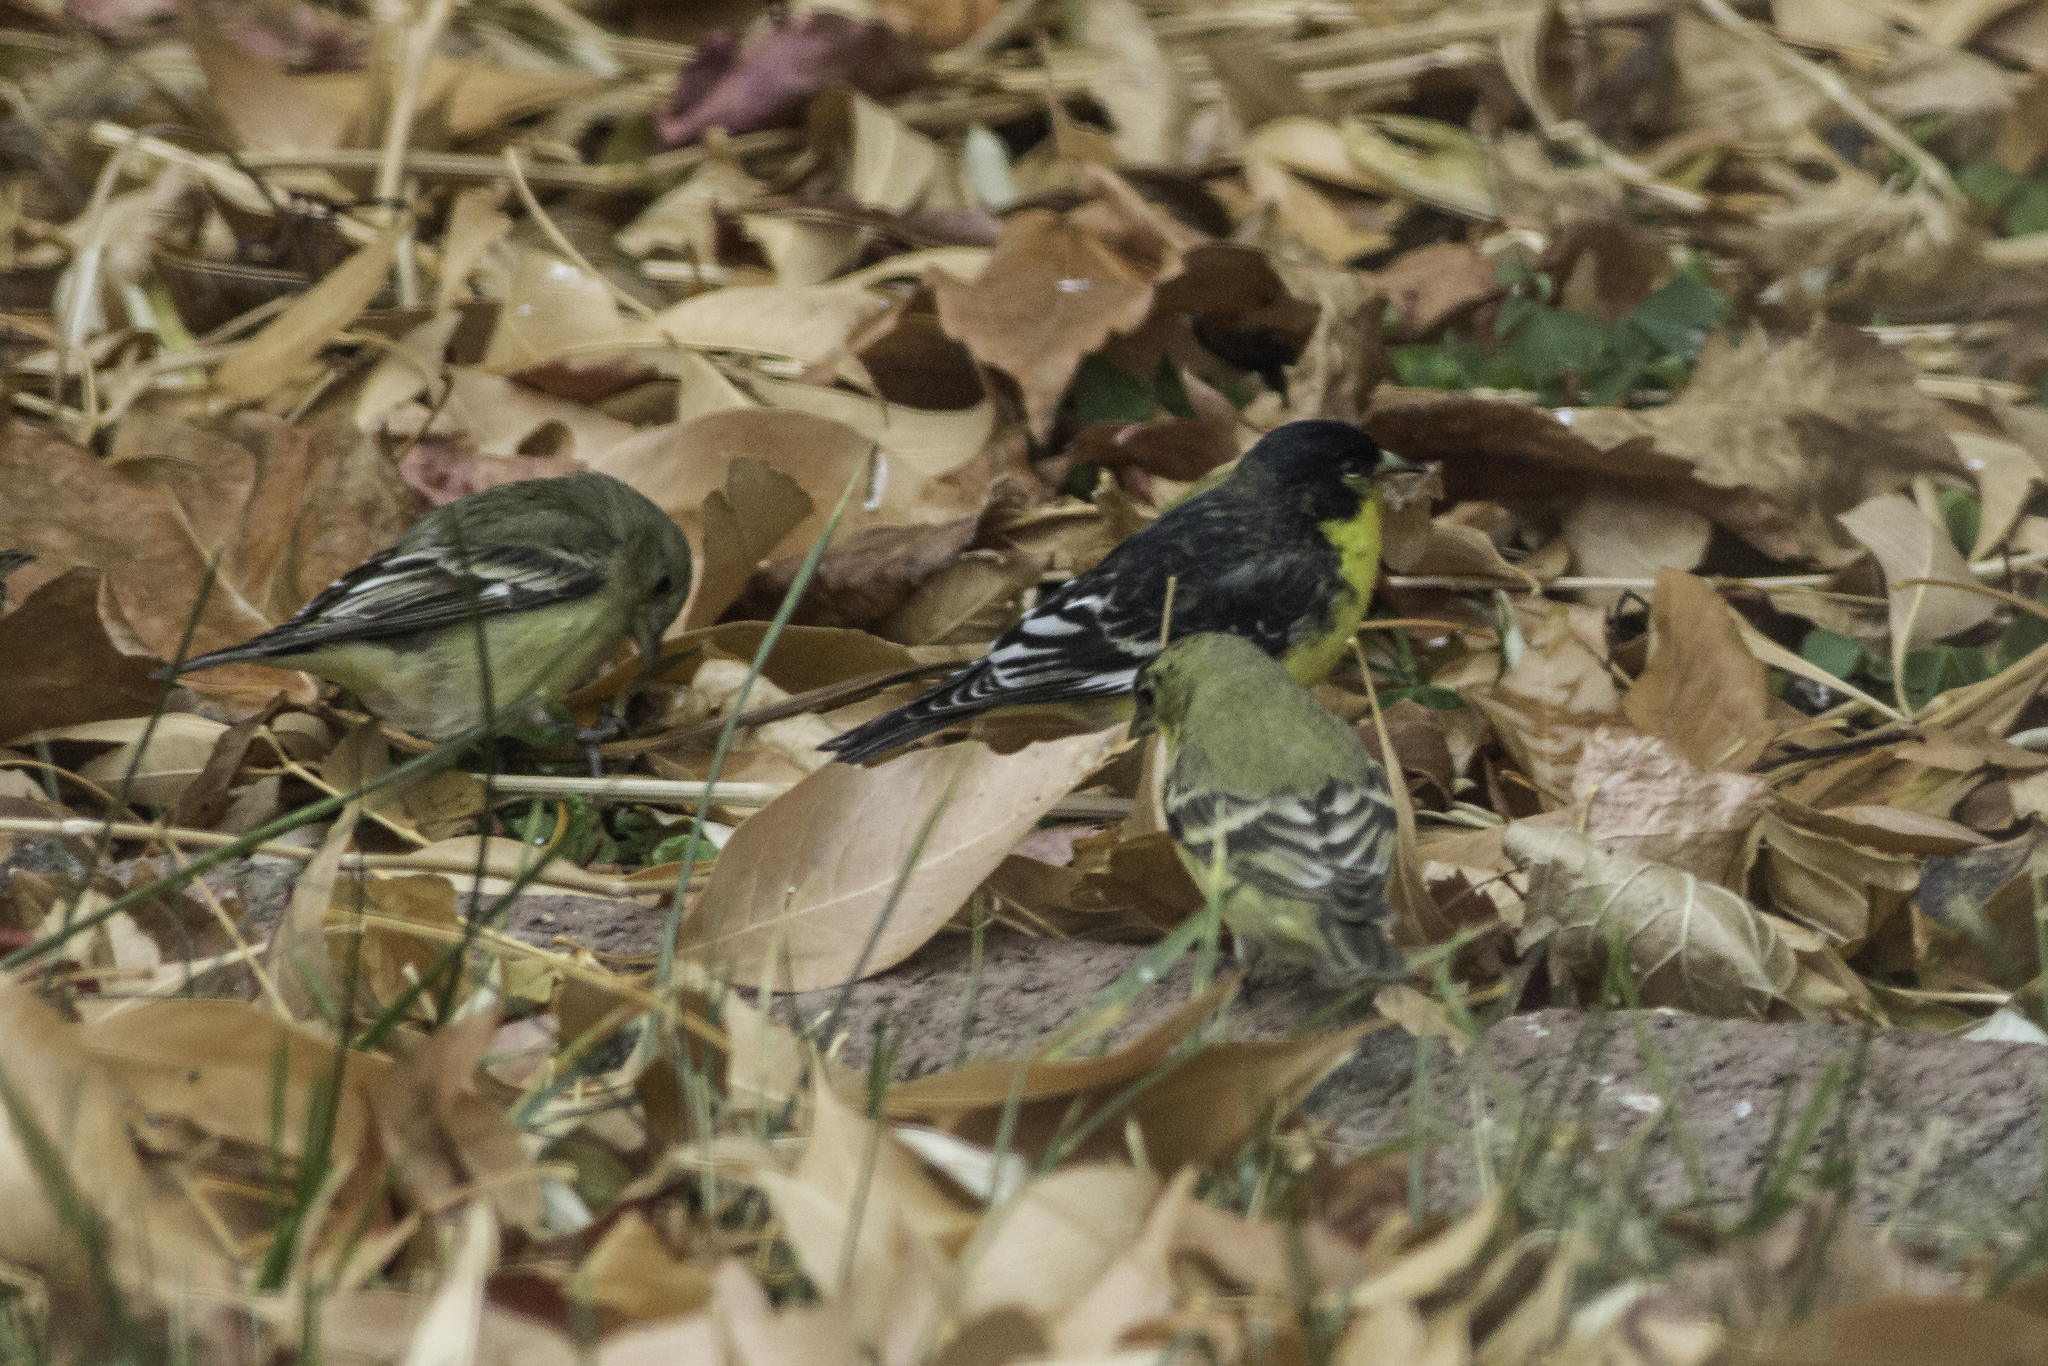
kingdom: Animalia
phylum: Chordata
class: Aves
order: Passeriformes
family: Fringillidae
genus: Spinus
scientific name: Spinus psaltria
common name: Lesser goldfinch
